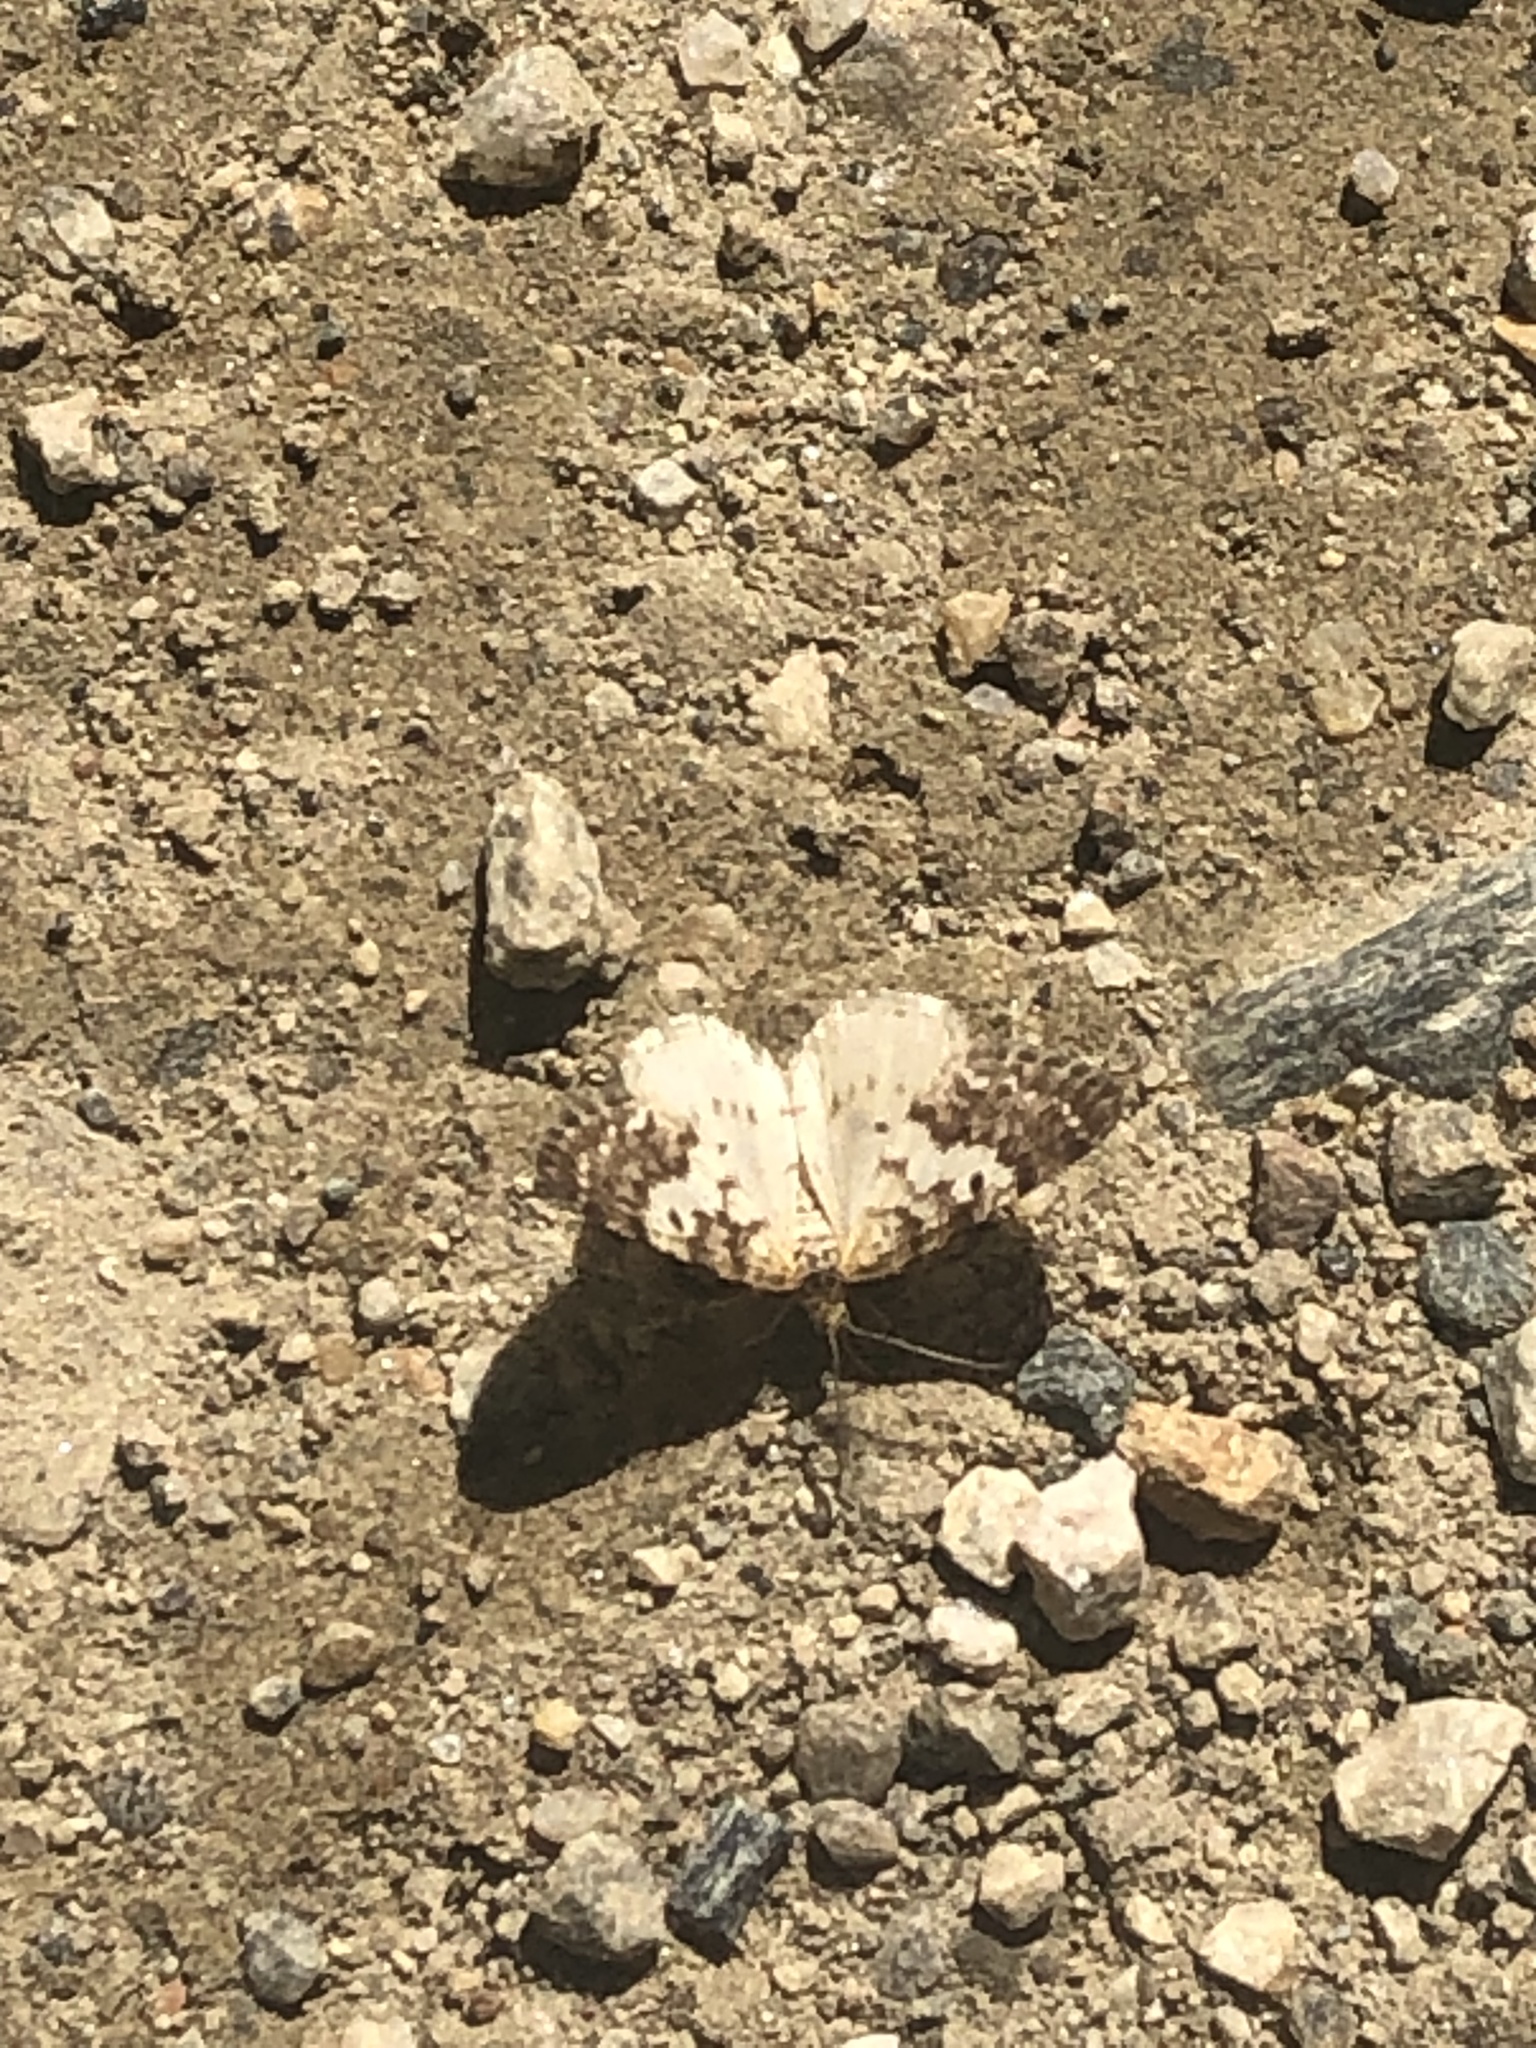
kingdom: Animalia
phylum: Arthropoda
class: Insecta
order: Lepidoptera
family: Geometridae
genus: Eufidonia
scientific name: Eufidonia notataria
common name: Powder moth
